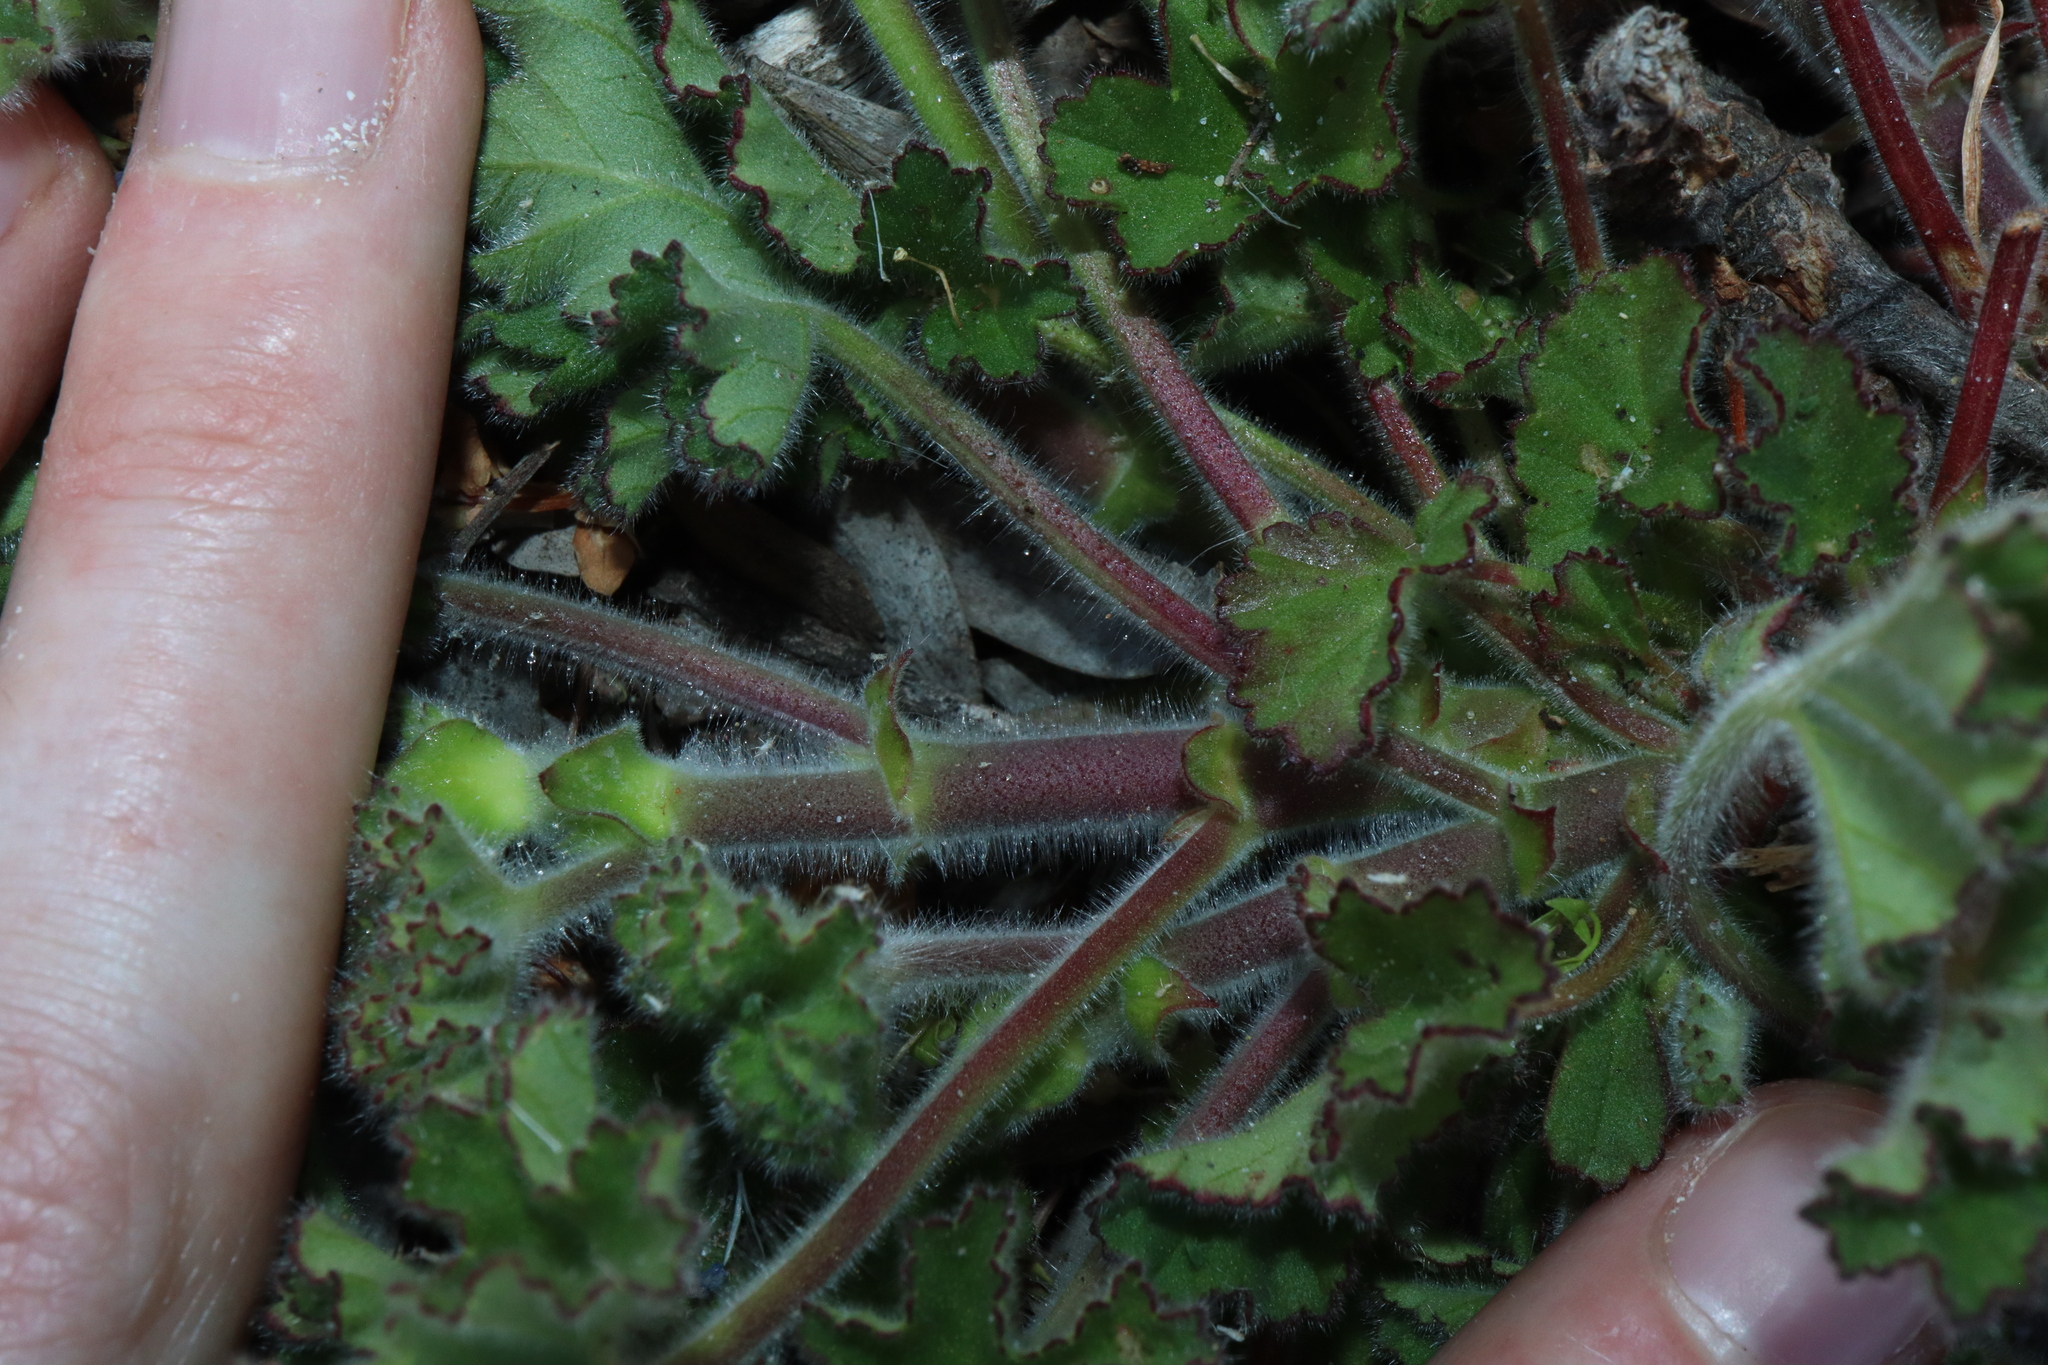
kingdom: Plantae
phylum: Tracheophyta
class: Magnoliopsida
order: Geraniales
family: Geraniaceae
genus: Pelargonium
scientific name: Pelargonium capitatum
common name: Rose scented geranium
